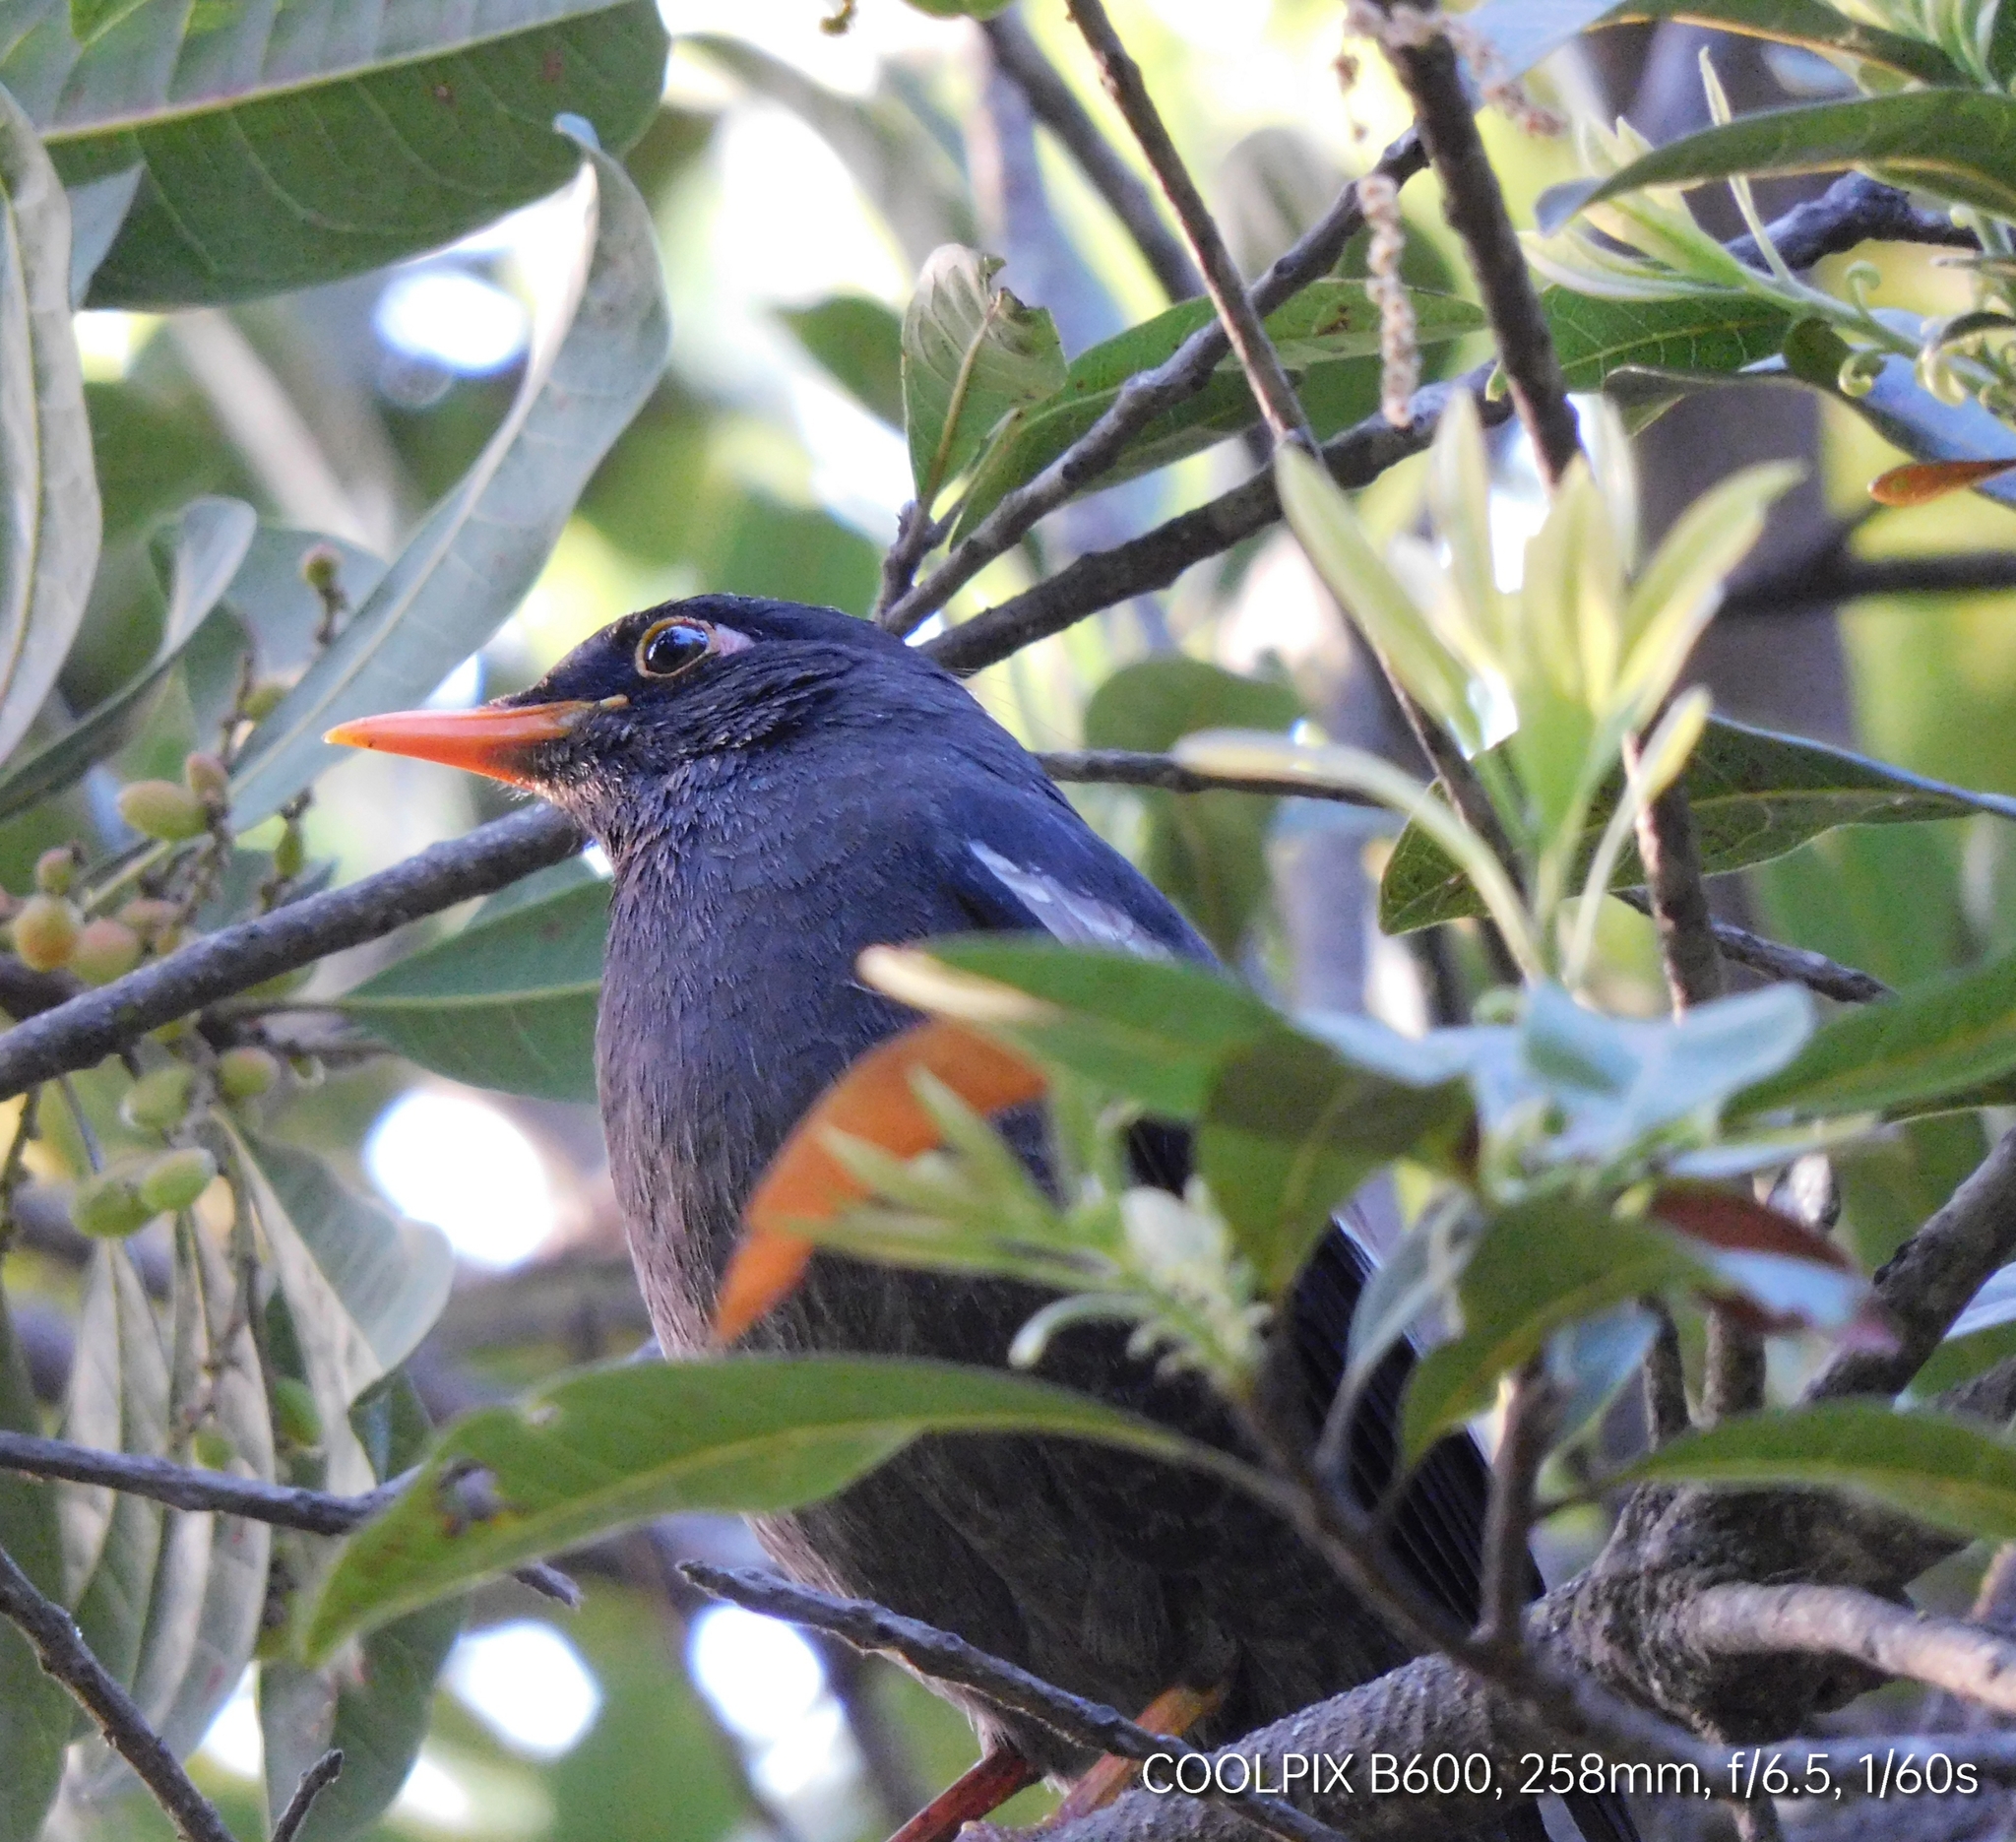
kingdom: Animalia
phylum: Chordata
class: Aves
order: Passeriformes
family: Turdidae
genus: Turdus
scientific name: Turdus boulboul
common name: Grey-winged blackbird
